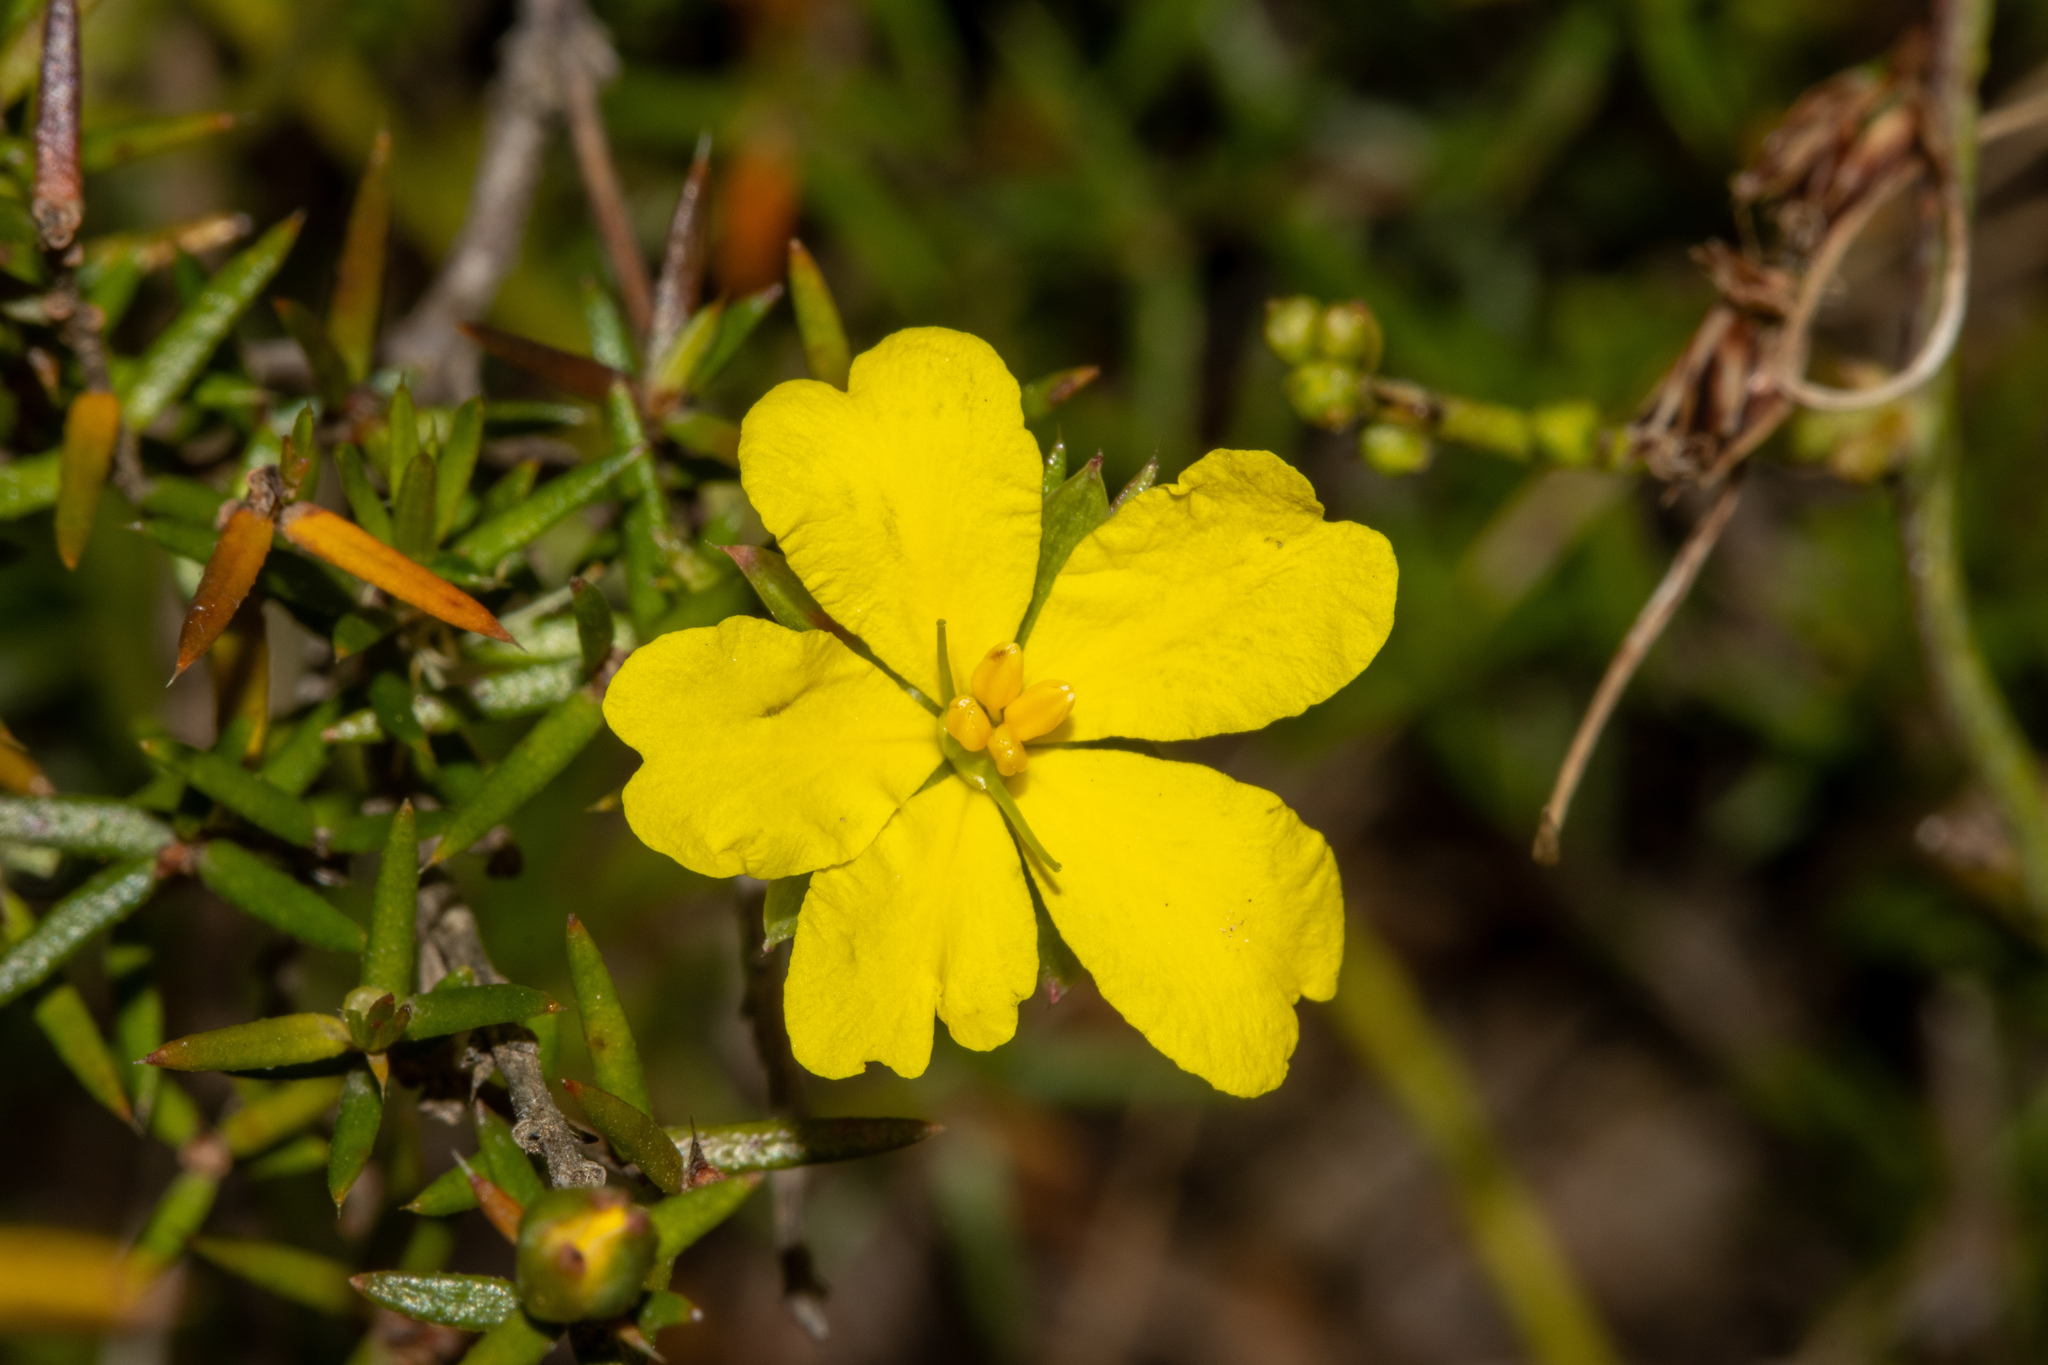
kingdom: Plantae
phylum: Tracheophyta
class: Magnoliopsida
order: Dilleniales
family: Dilleniaceae
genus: Hibbertia
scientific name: Hibbertia exutiacies
